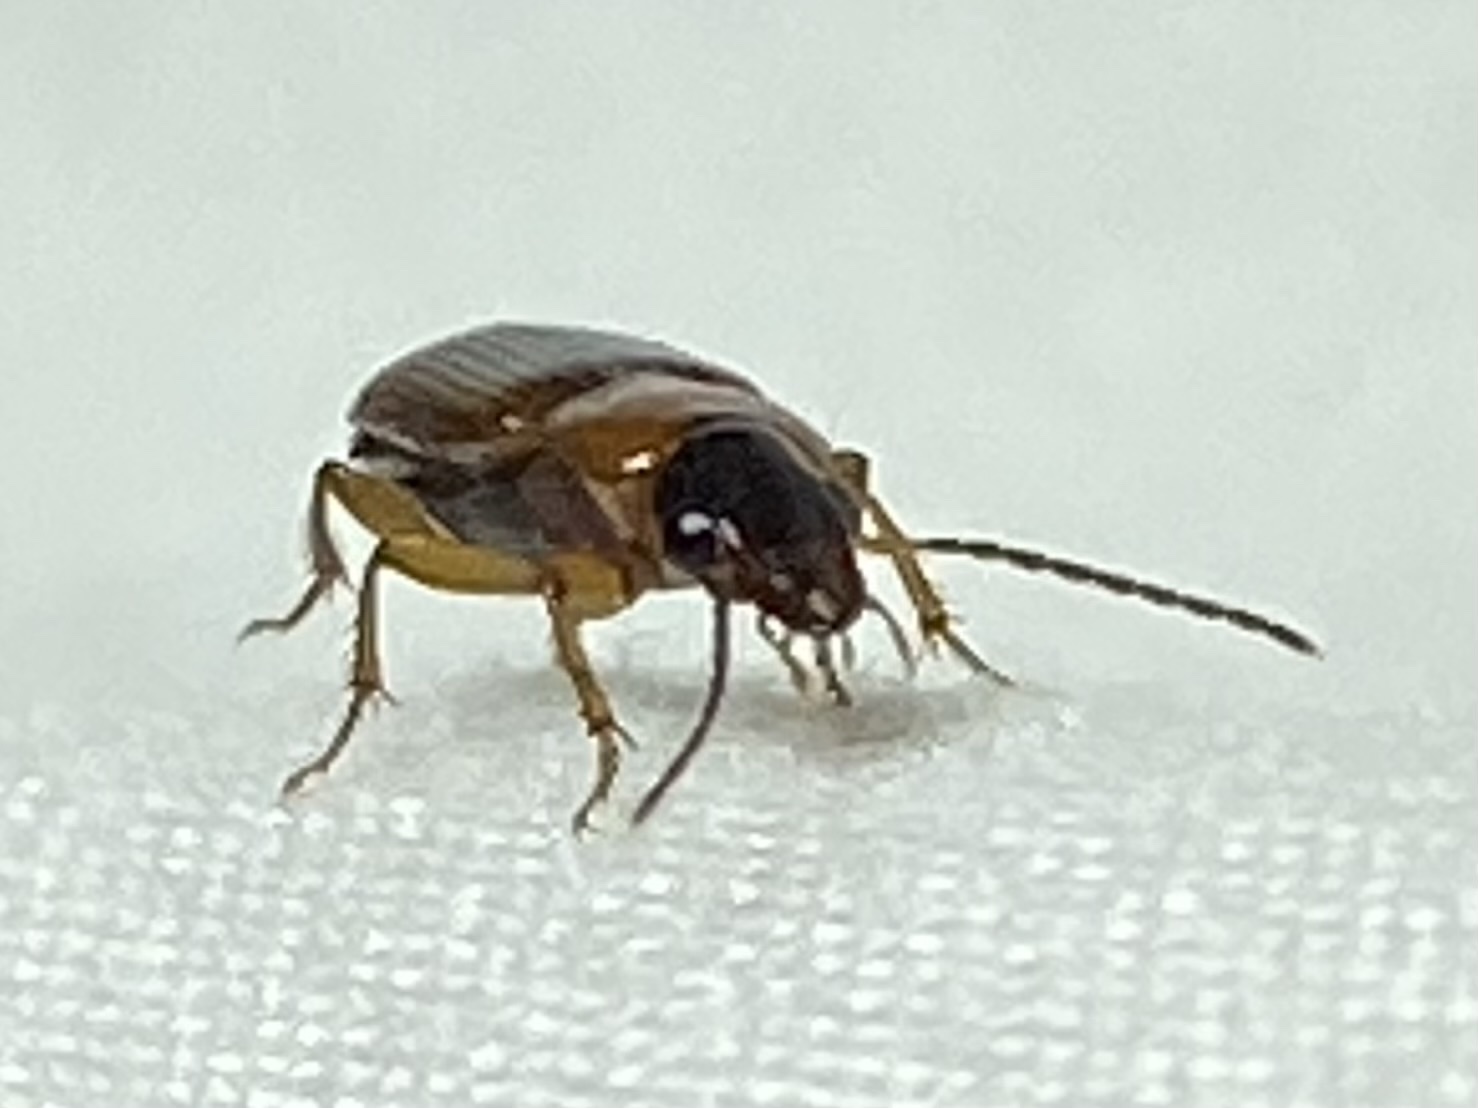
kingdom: Animalia
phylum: Arthropoda
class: Insecta
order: Coleoptera
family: Carabidae
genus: Stenolophus
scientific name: Stenolophus dissimilis
